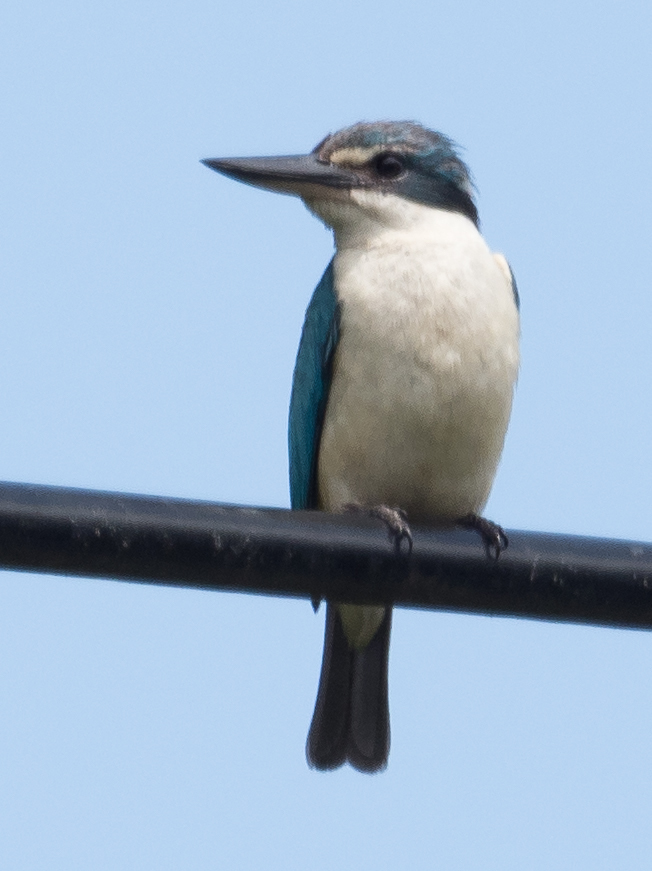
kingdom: Animalia
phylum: Chordata
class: Aves
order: Coraciiformes
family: Alcedinidae
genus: Todiramphus
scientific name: Todiramphus sanctus
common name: Sacred kingfisher
